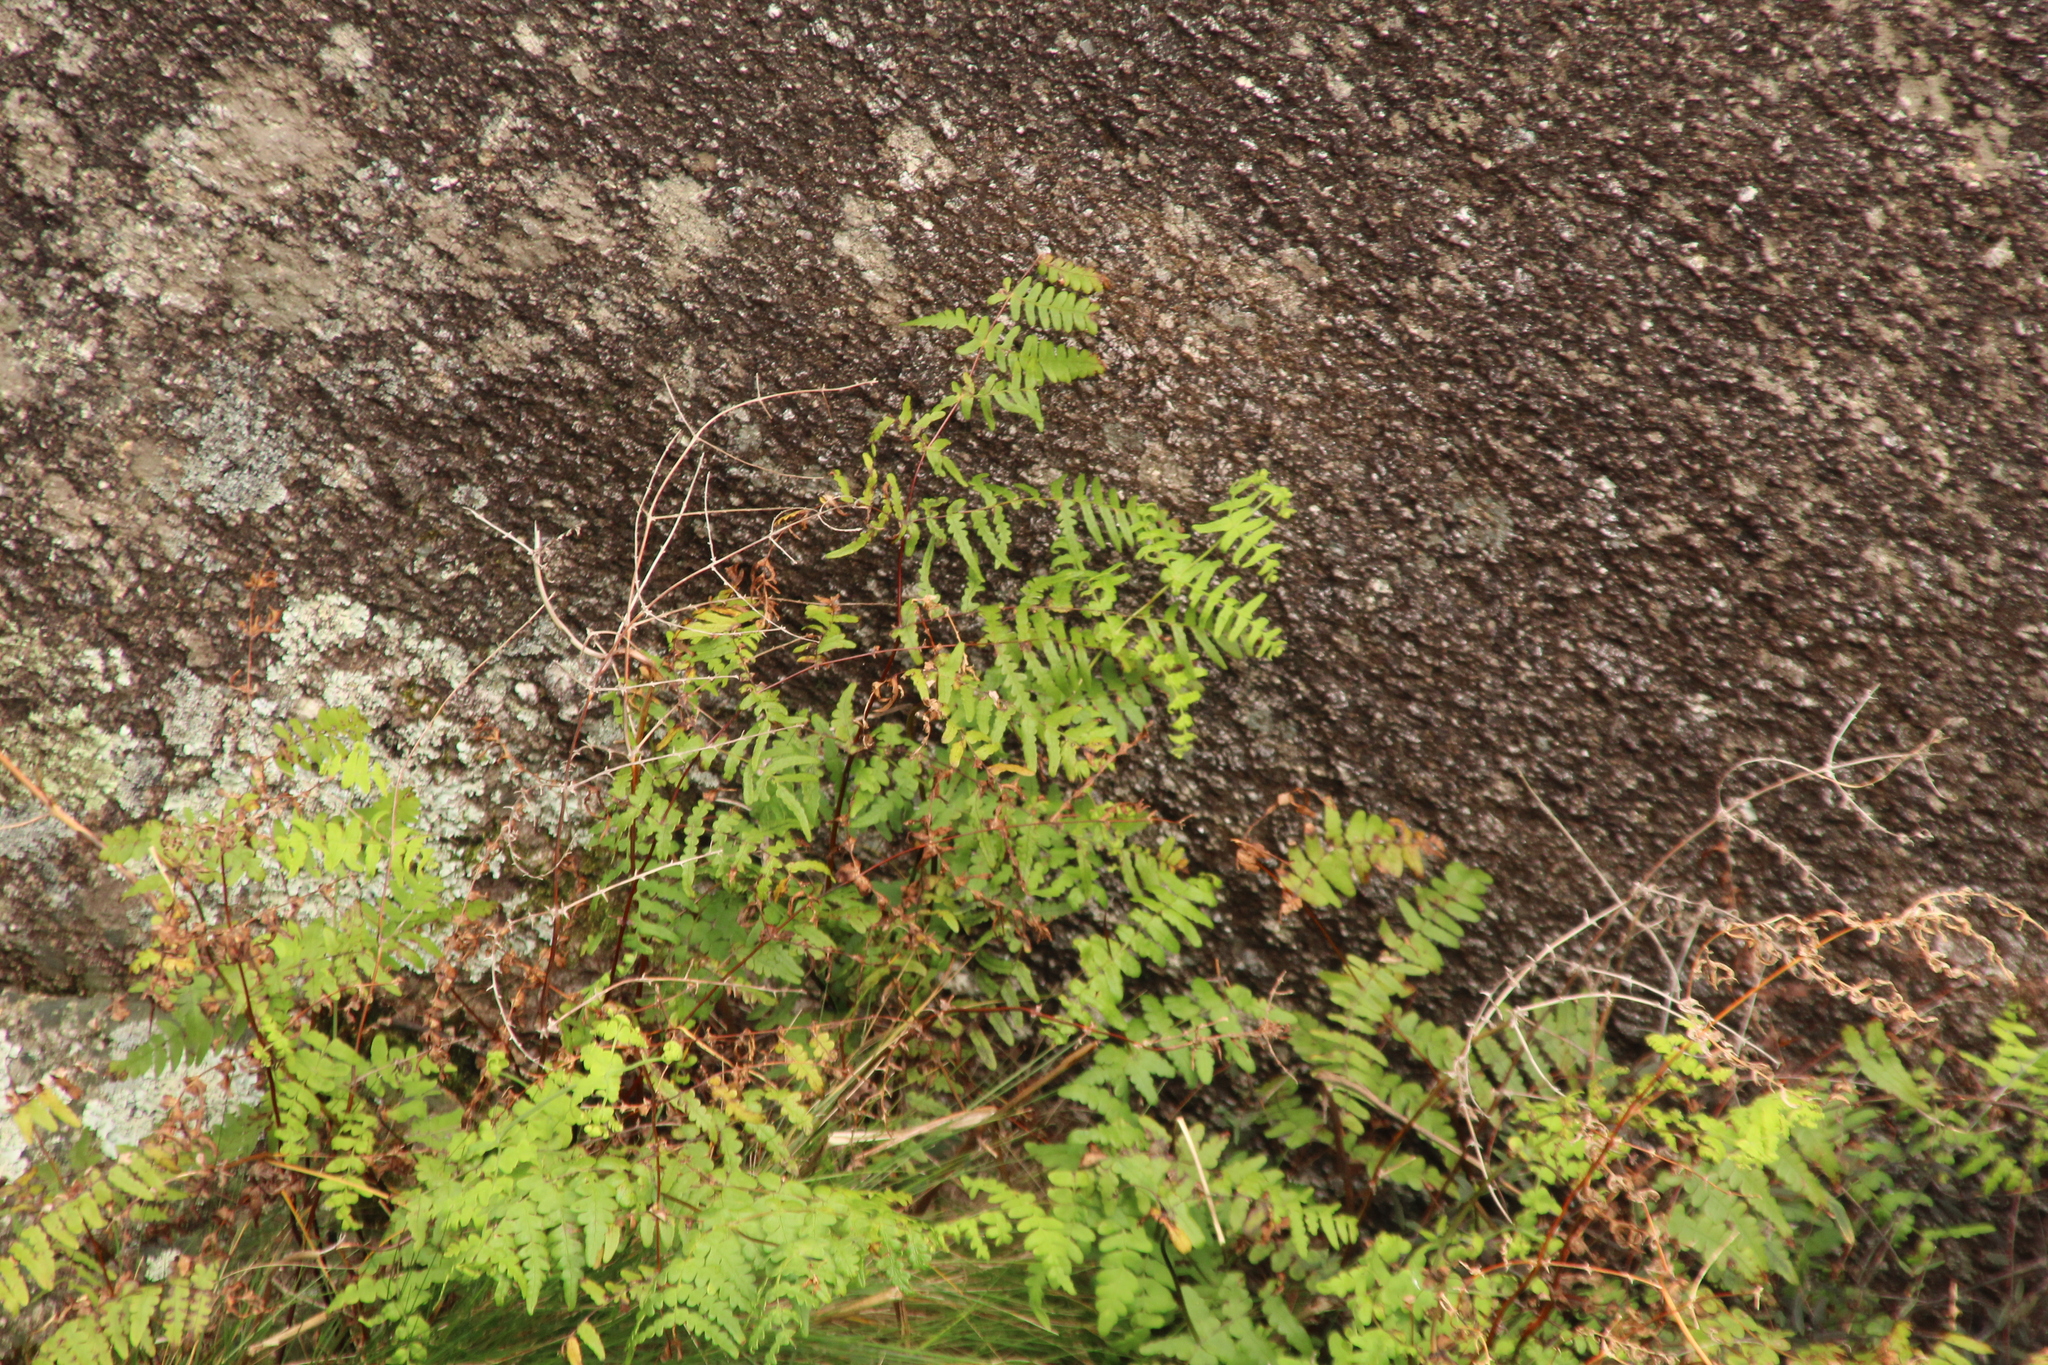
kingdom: Plantae
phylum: Tracheophyta
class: Polypodiopsida
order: Polypodiales
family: Dennstaedtiaceae
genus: Histiopteris
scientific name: Histiopteris incisa
